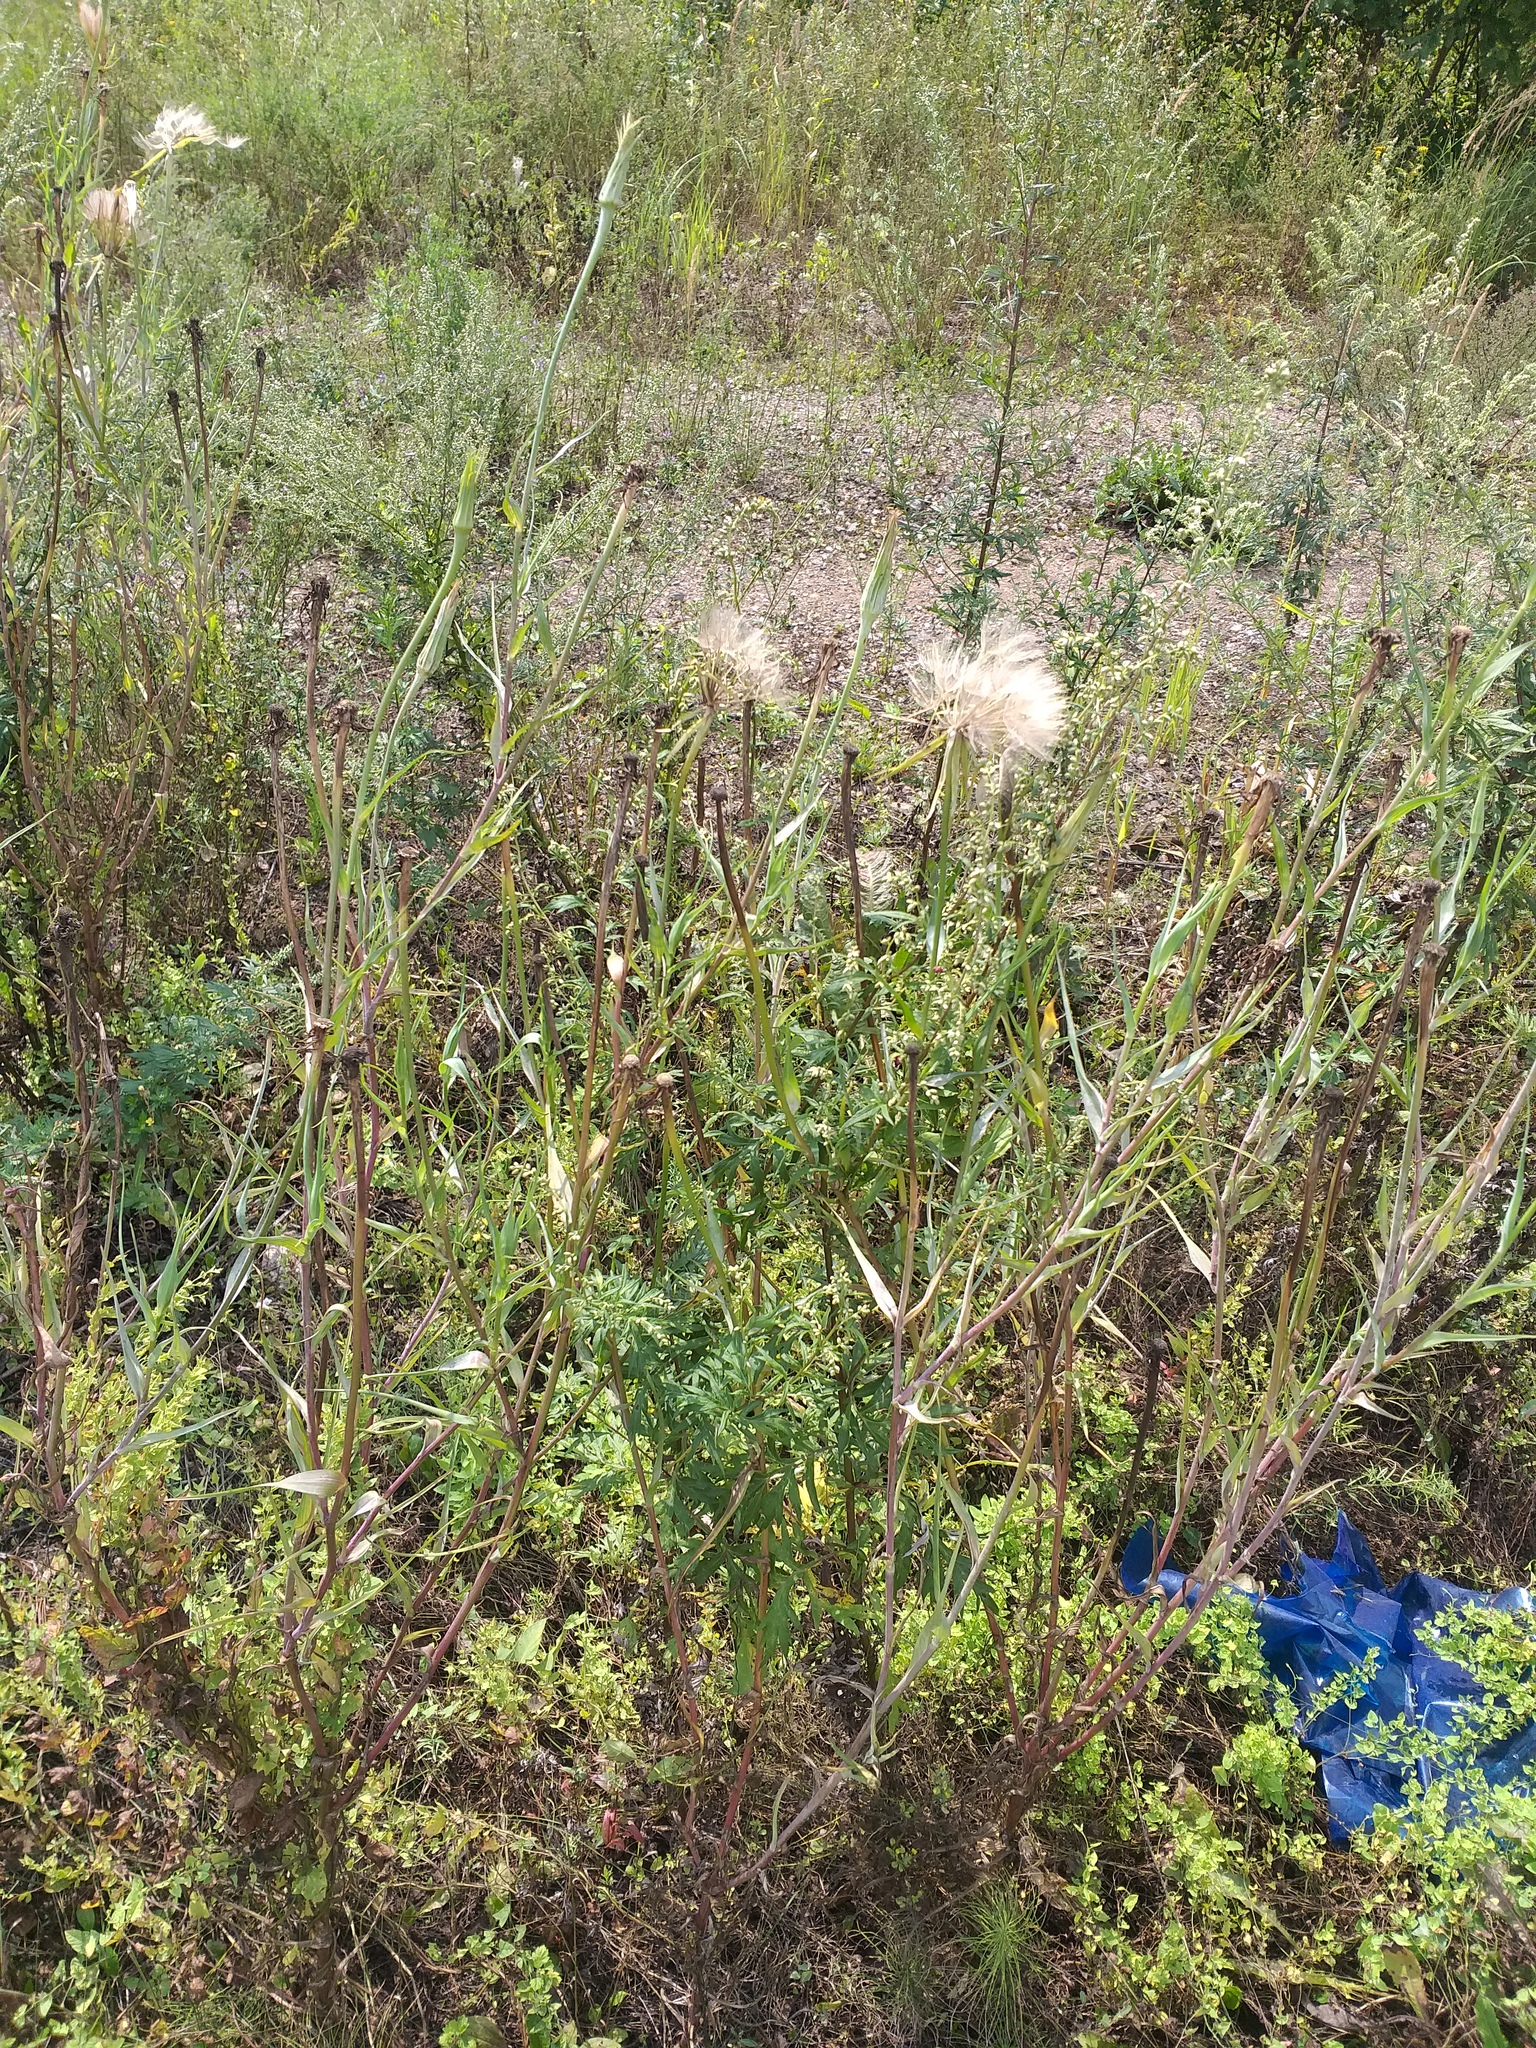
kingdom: Plantae
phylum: Tracheophyta
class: Magnoliopsida
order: Asterales
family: Asteraceae
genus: Tragopogon
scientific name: Tragopogon dubius
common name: Yellow salsify
